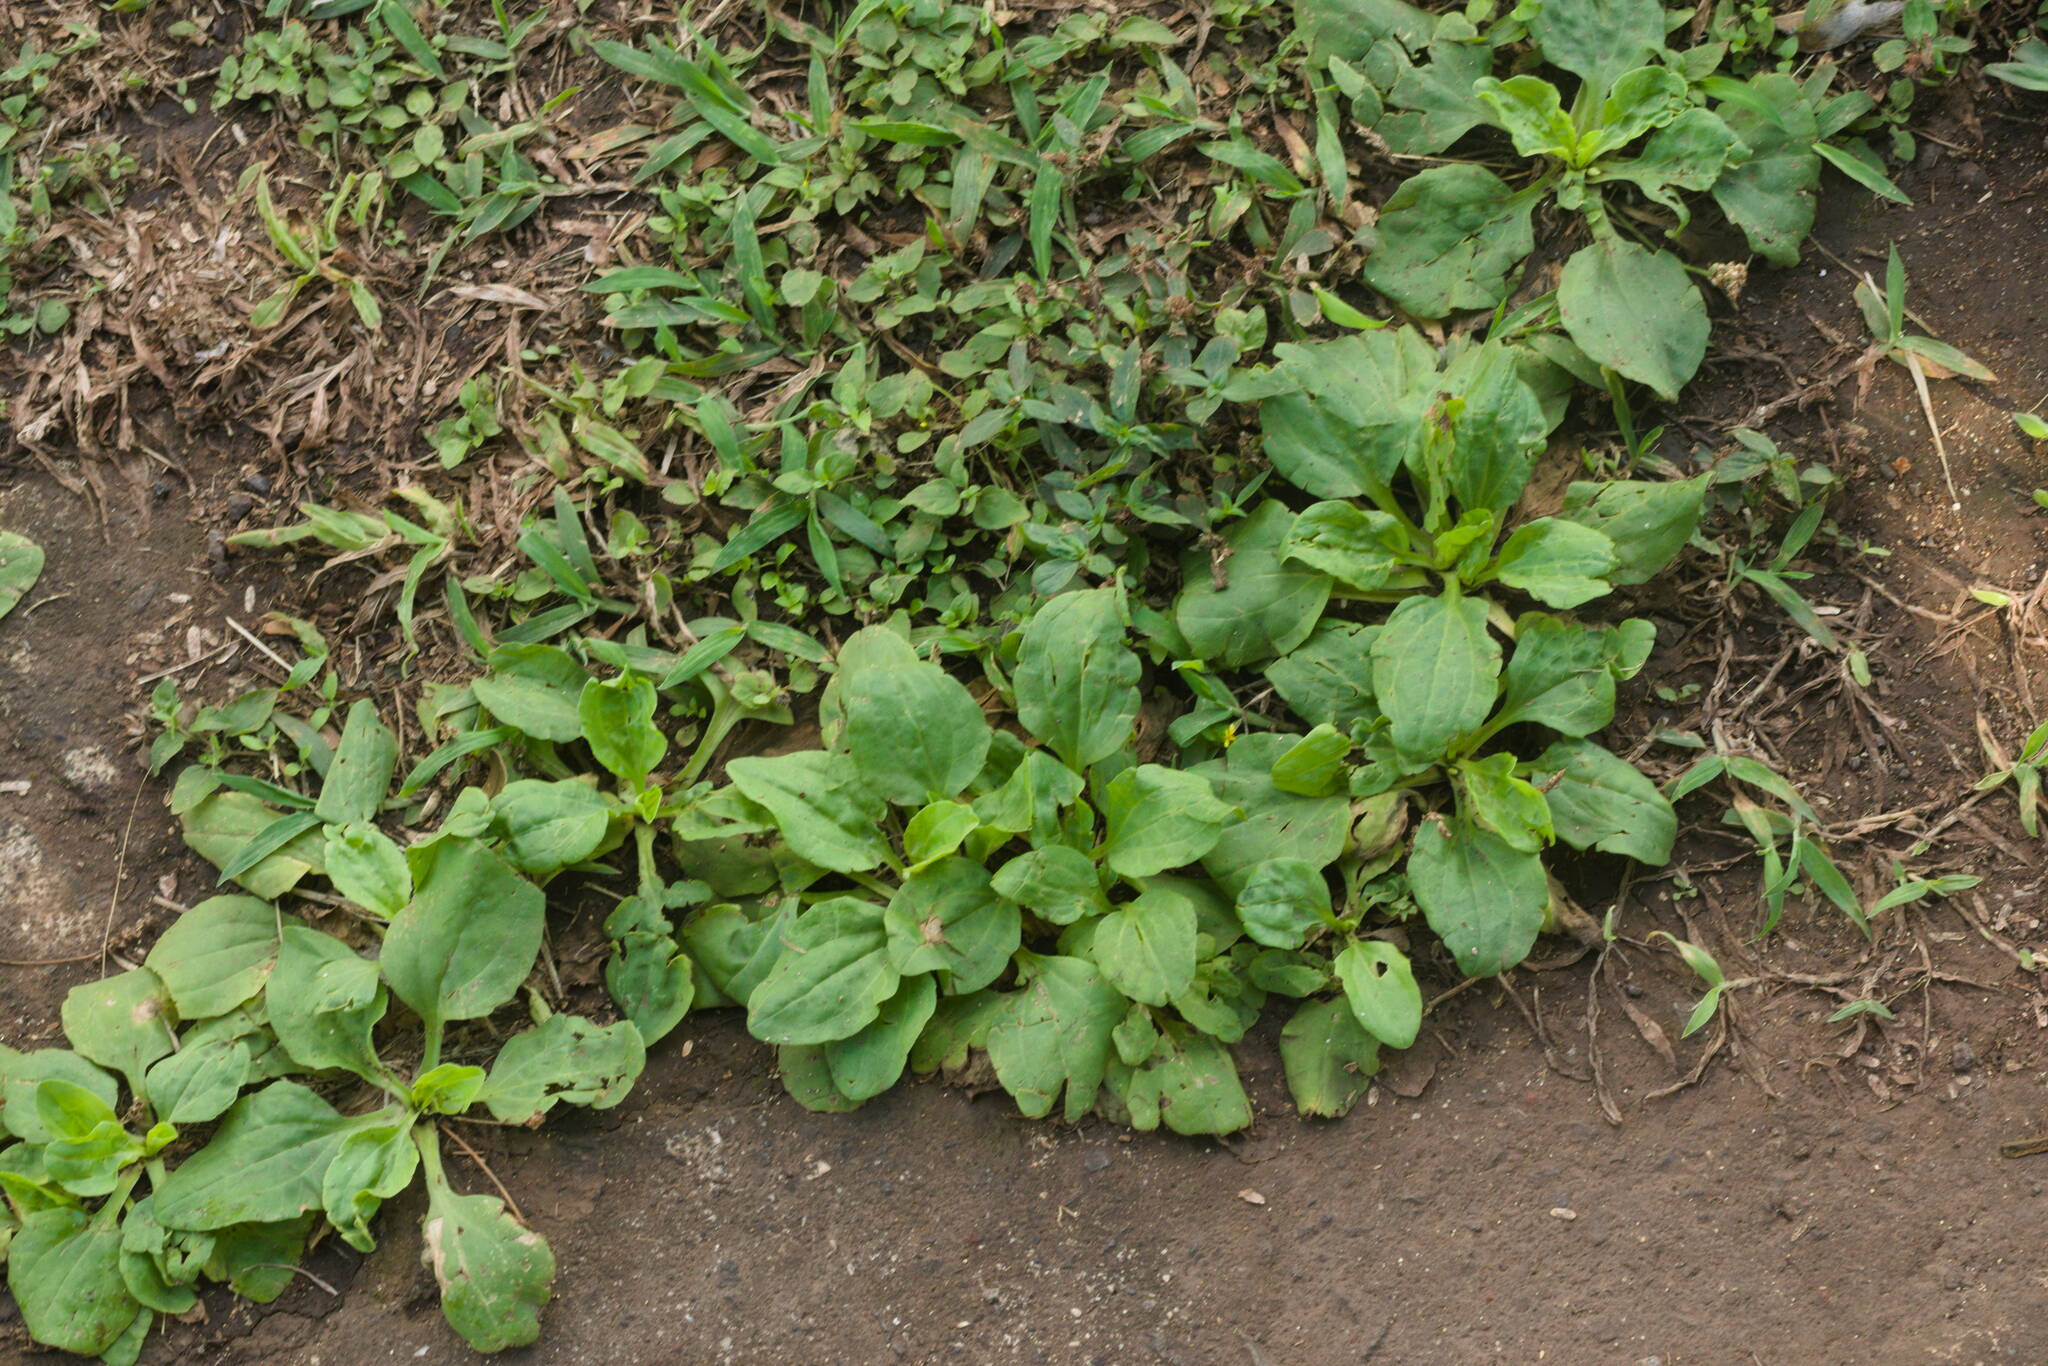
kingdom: Plantae
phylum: Tracheophyta
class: Magnoliopsida
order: Lamiales
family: Plantaginaceae
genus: Plantago
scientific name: Plantago major
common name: Common plantain
